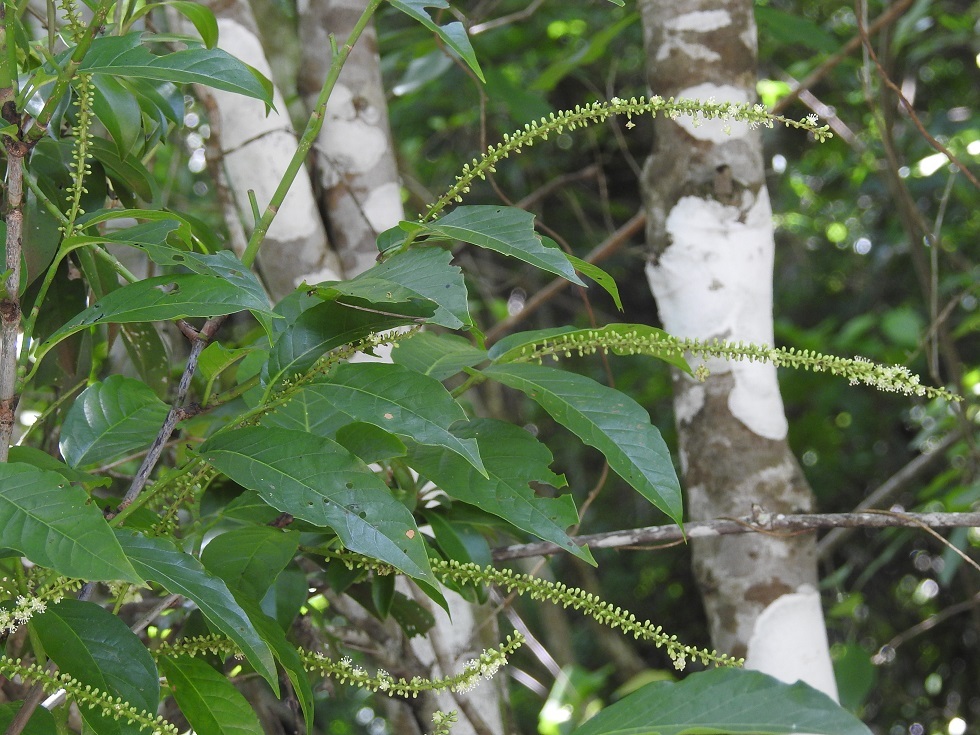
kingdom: Plantae
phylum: Tracheophyta
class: Magnoliopsida
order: Caryophyllales
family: Polygonaceae
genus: Coccoloba
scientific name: Coccoloba hondurensis
